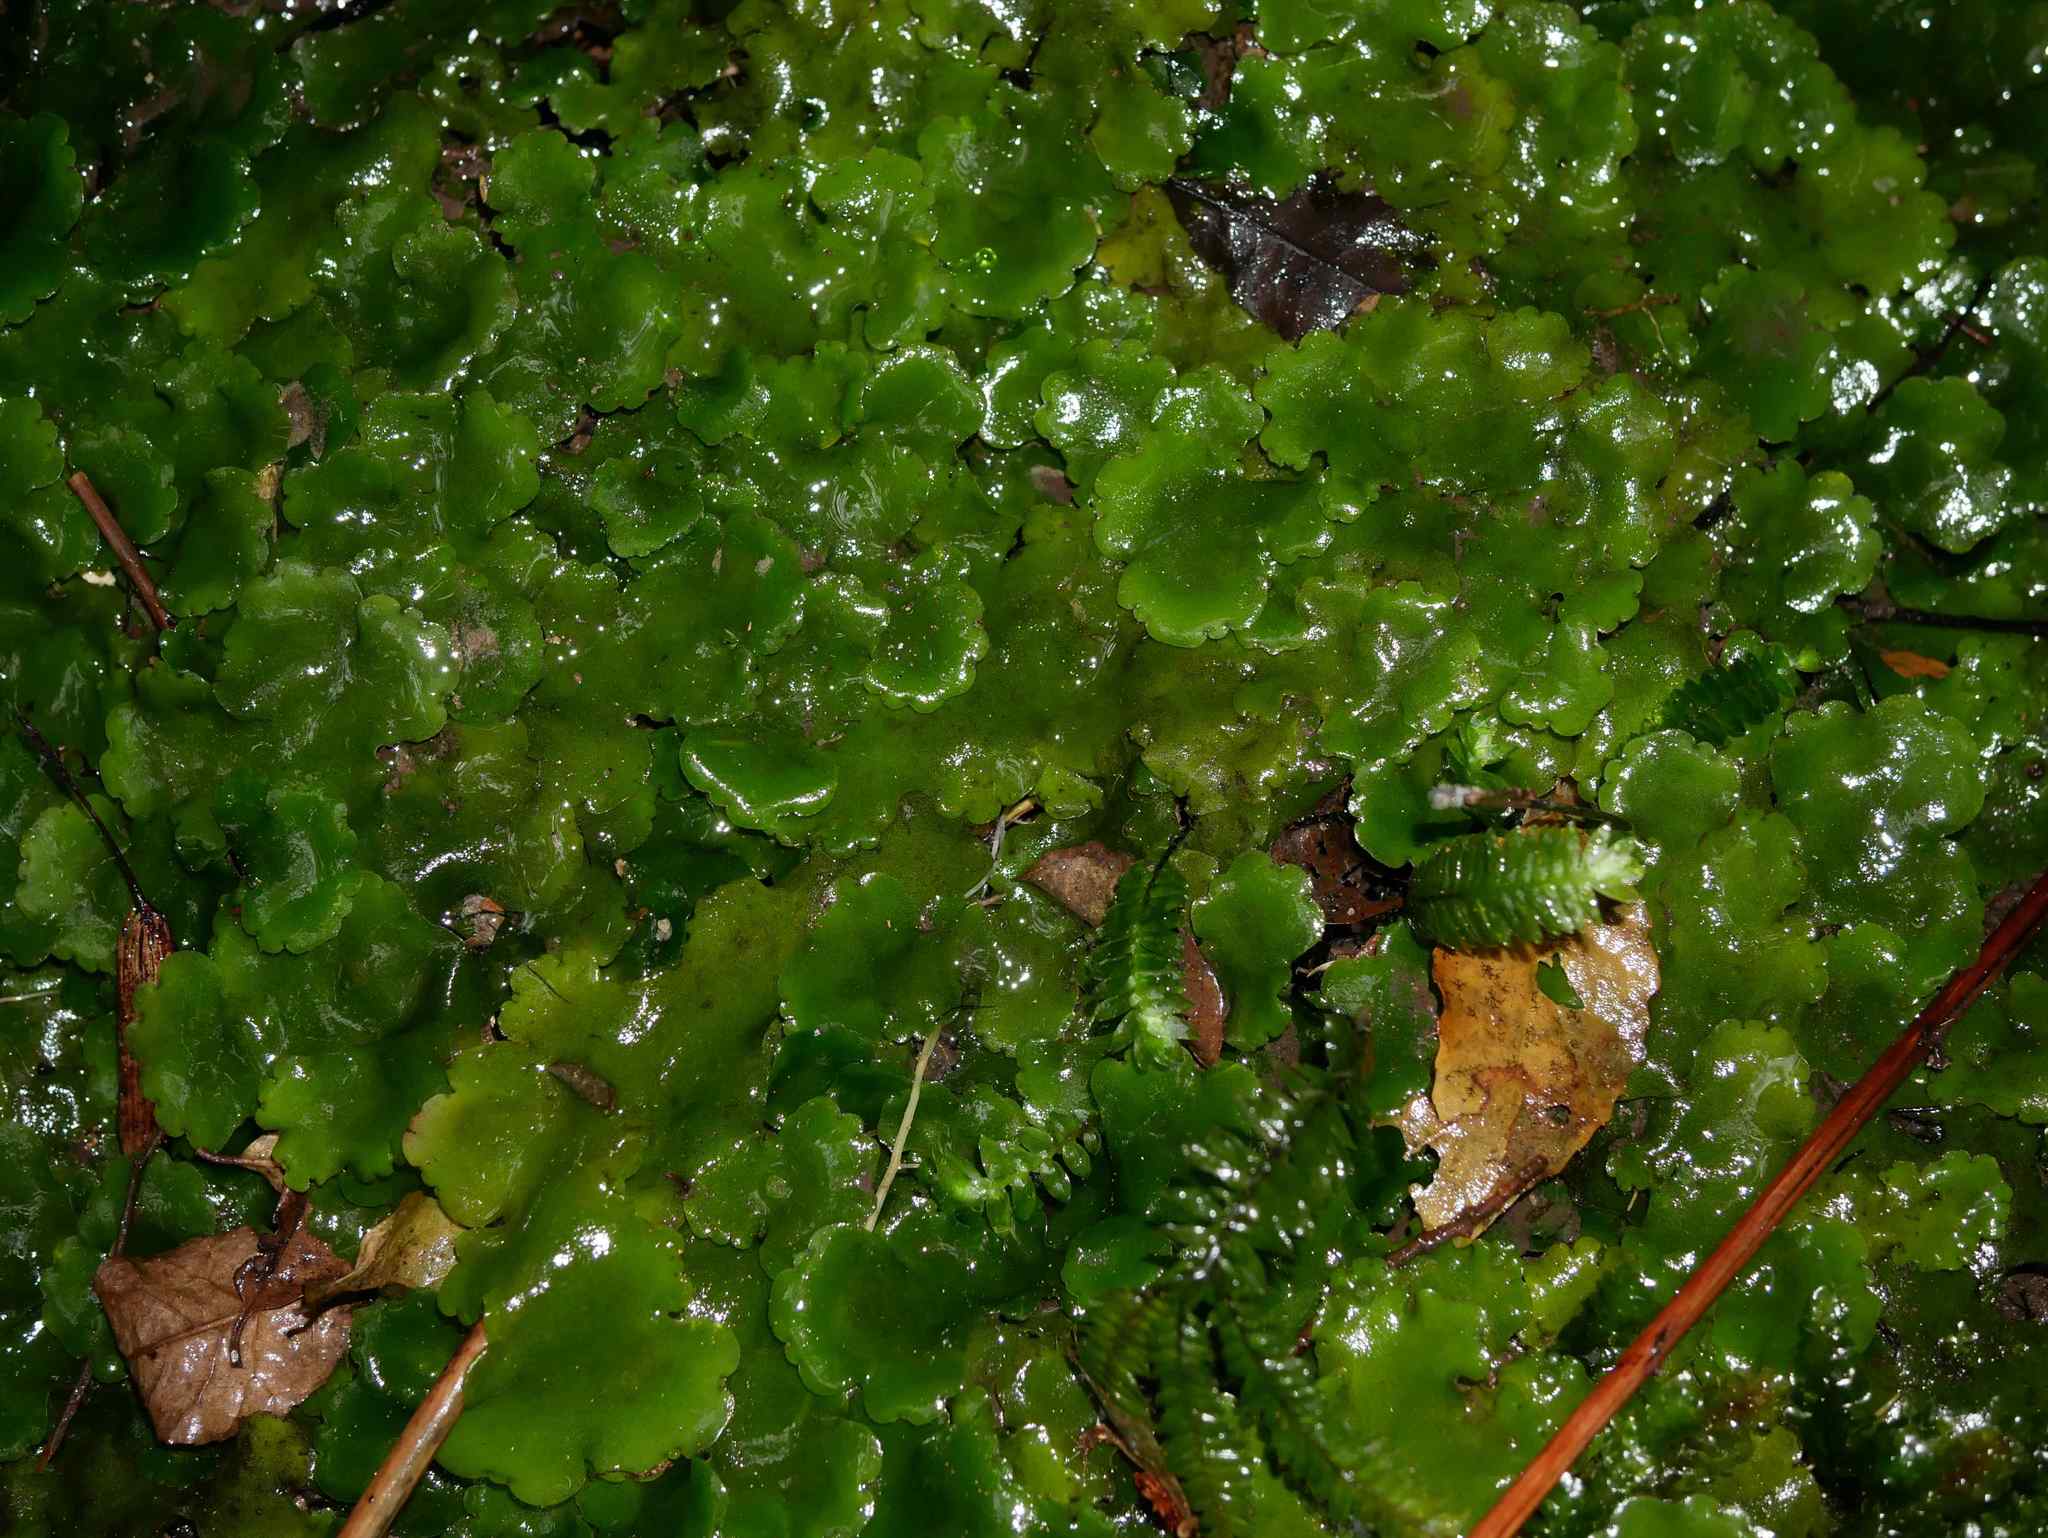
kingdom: Plantae
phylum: Marchantiophyta
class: Marchantiopsida
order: Marchantiales
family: Monocleaceae
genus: Monoclea
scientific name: Monoclea forsteri
